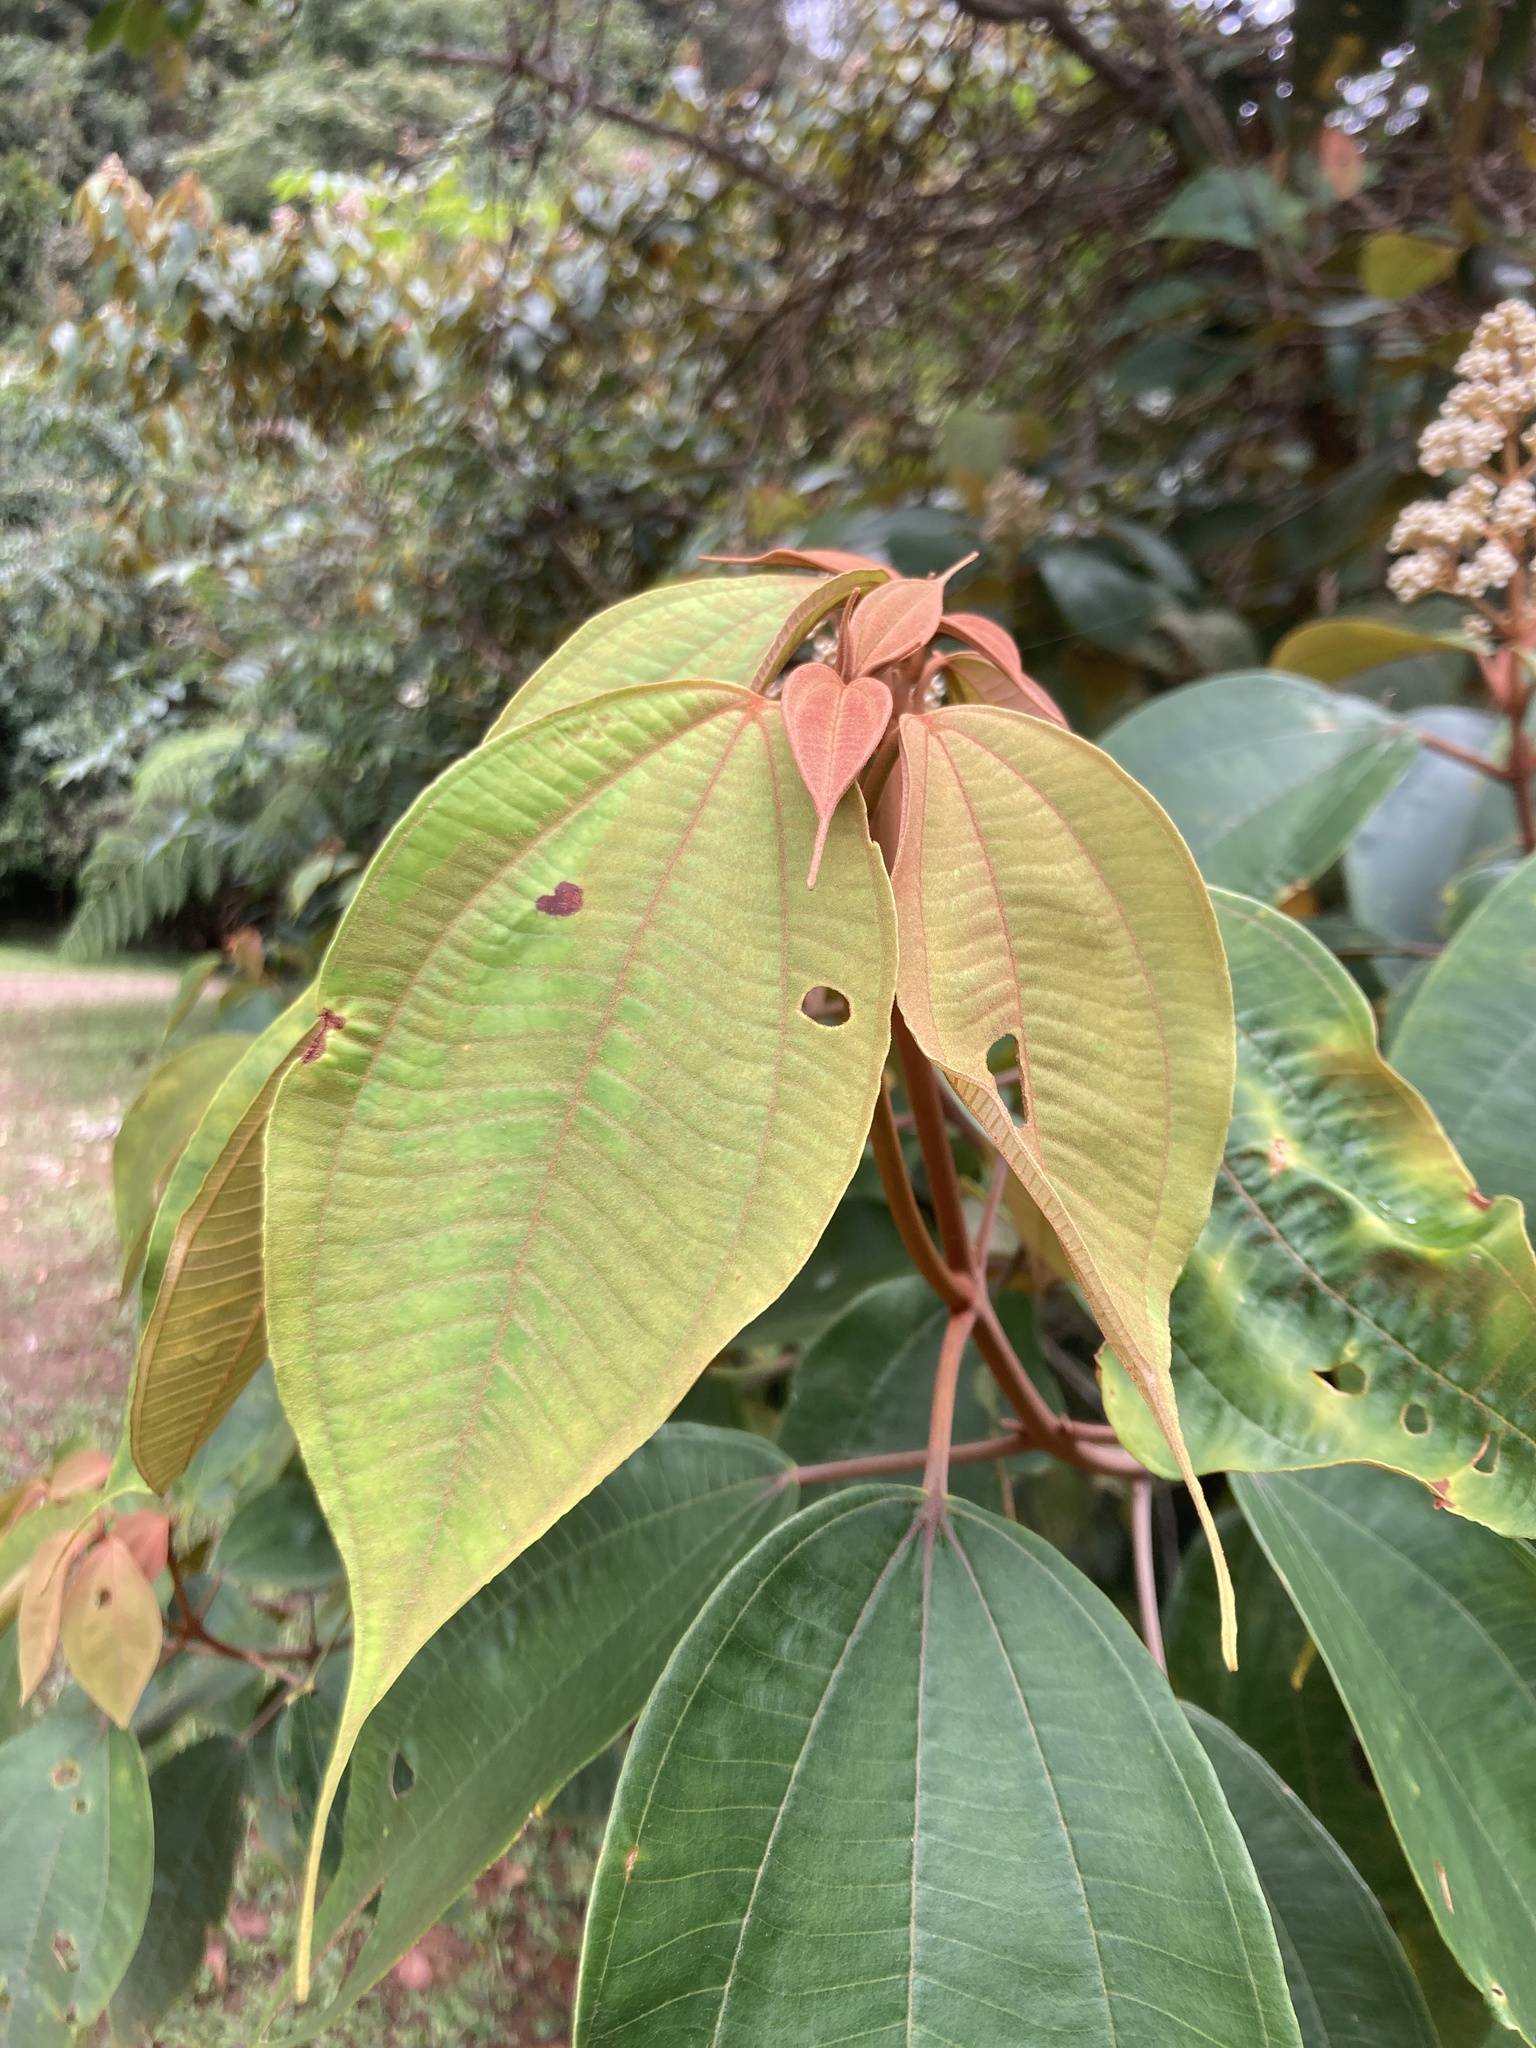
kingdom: Plantae
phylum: Tracheophyta
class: Magnoliopsida
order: Myrtales
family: Melastomataceae
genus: Miconia
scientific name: Miconia caudata
